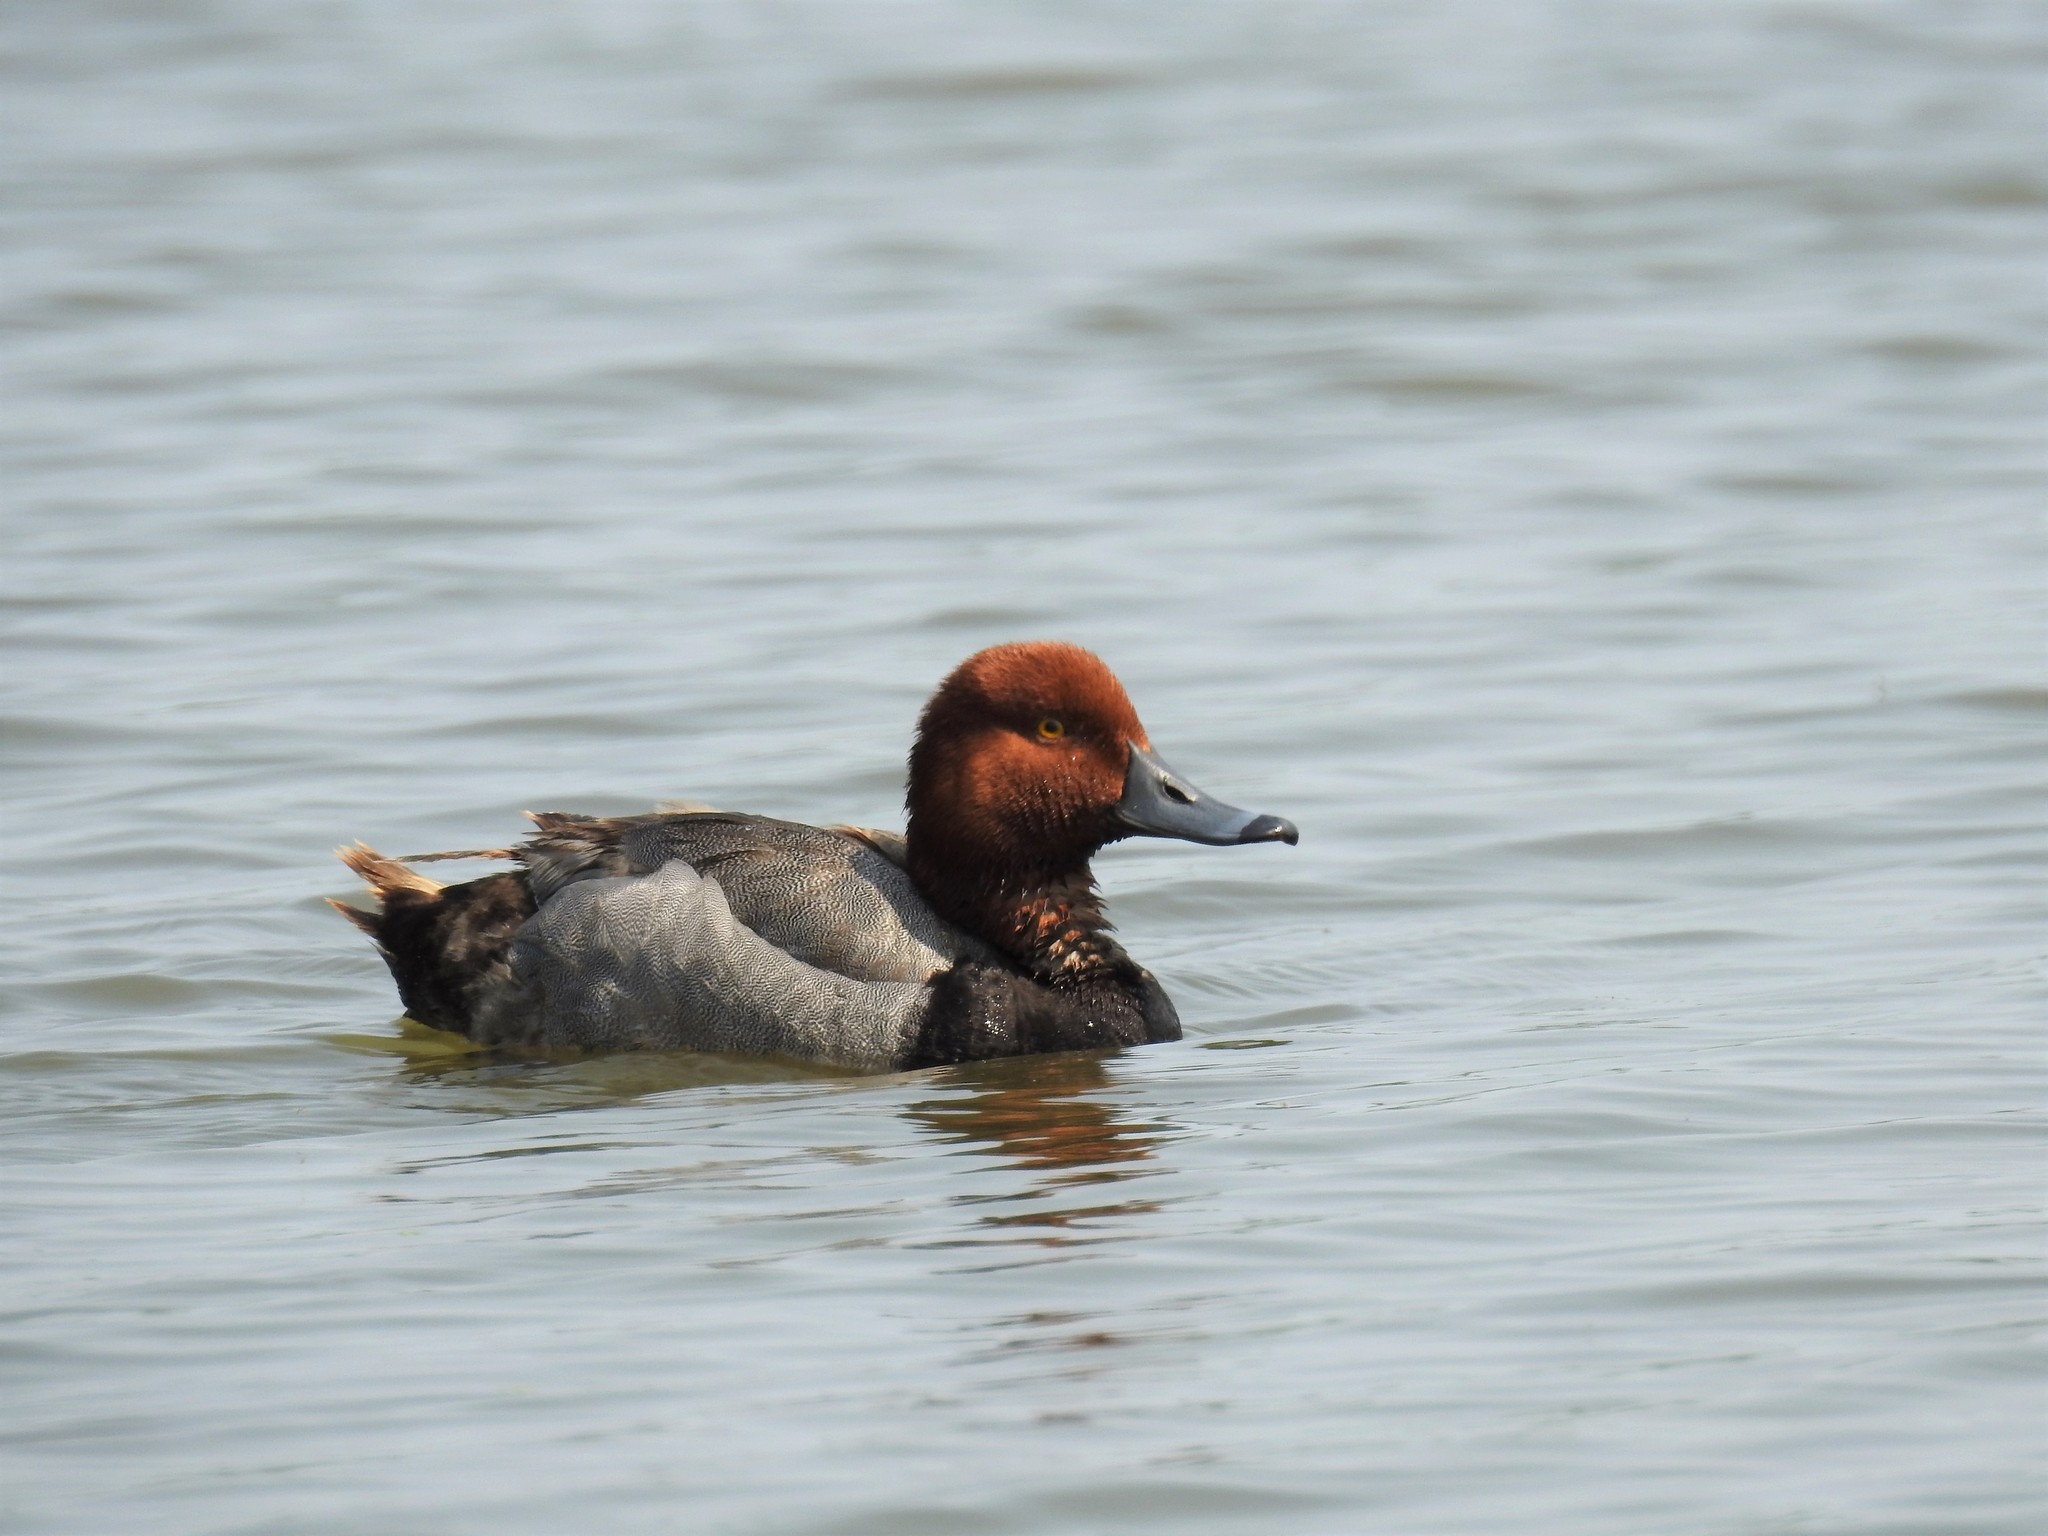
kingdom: Animalia
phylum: Chordata
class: Aves
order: Anseriformes
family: Anatidae
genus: Aythya
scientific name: Aythya americana
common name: Redhead
